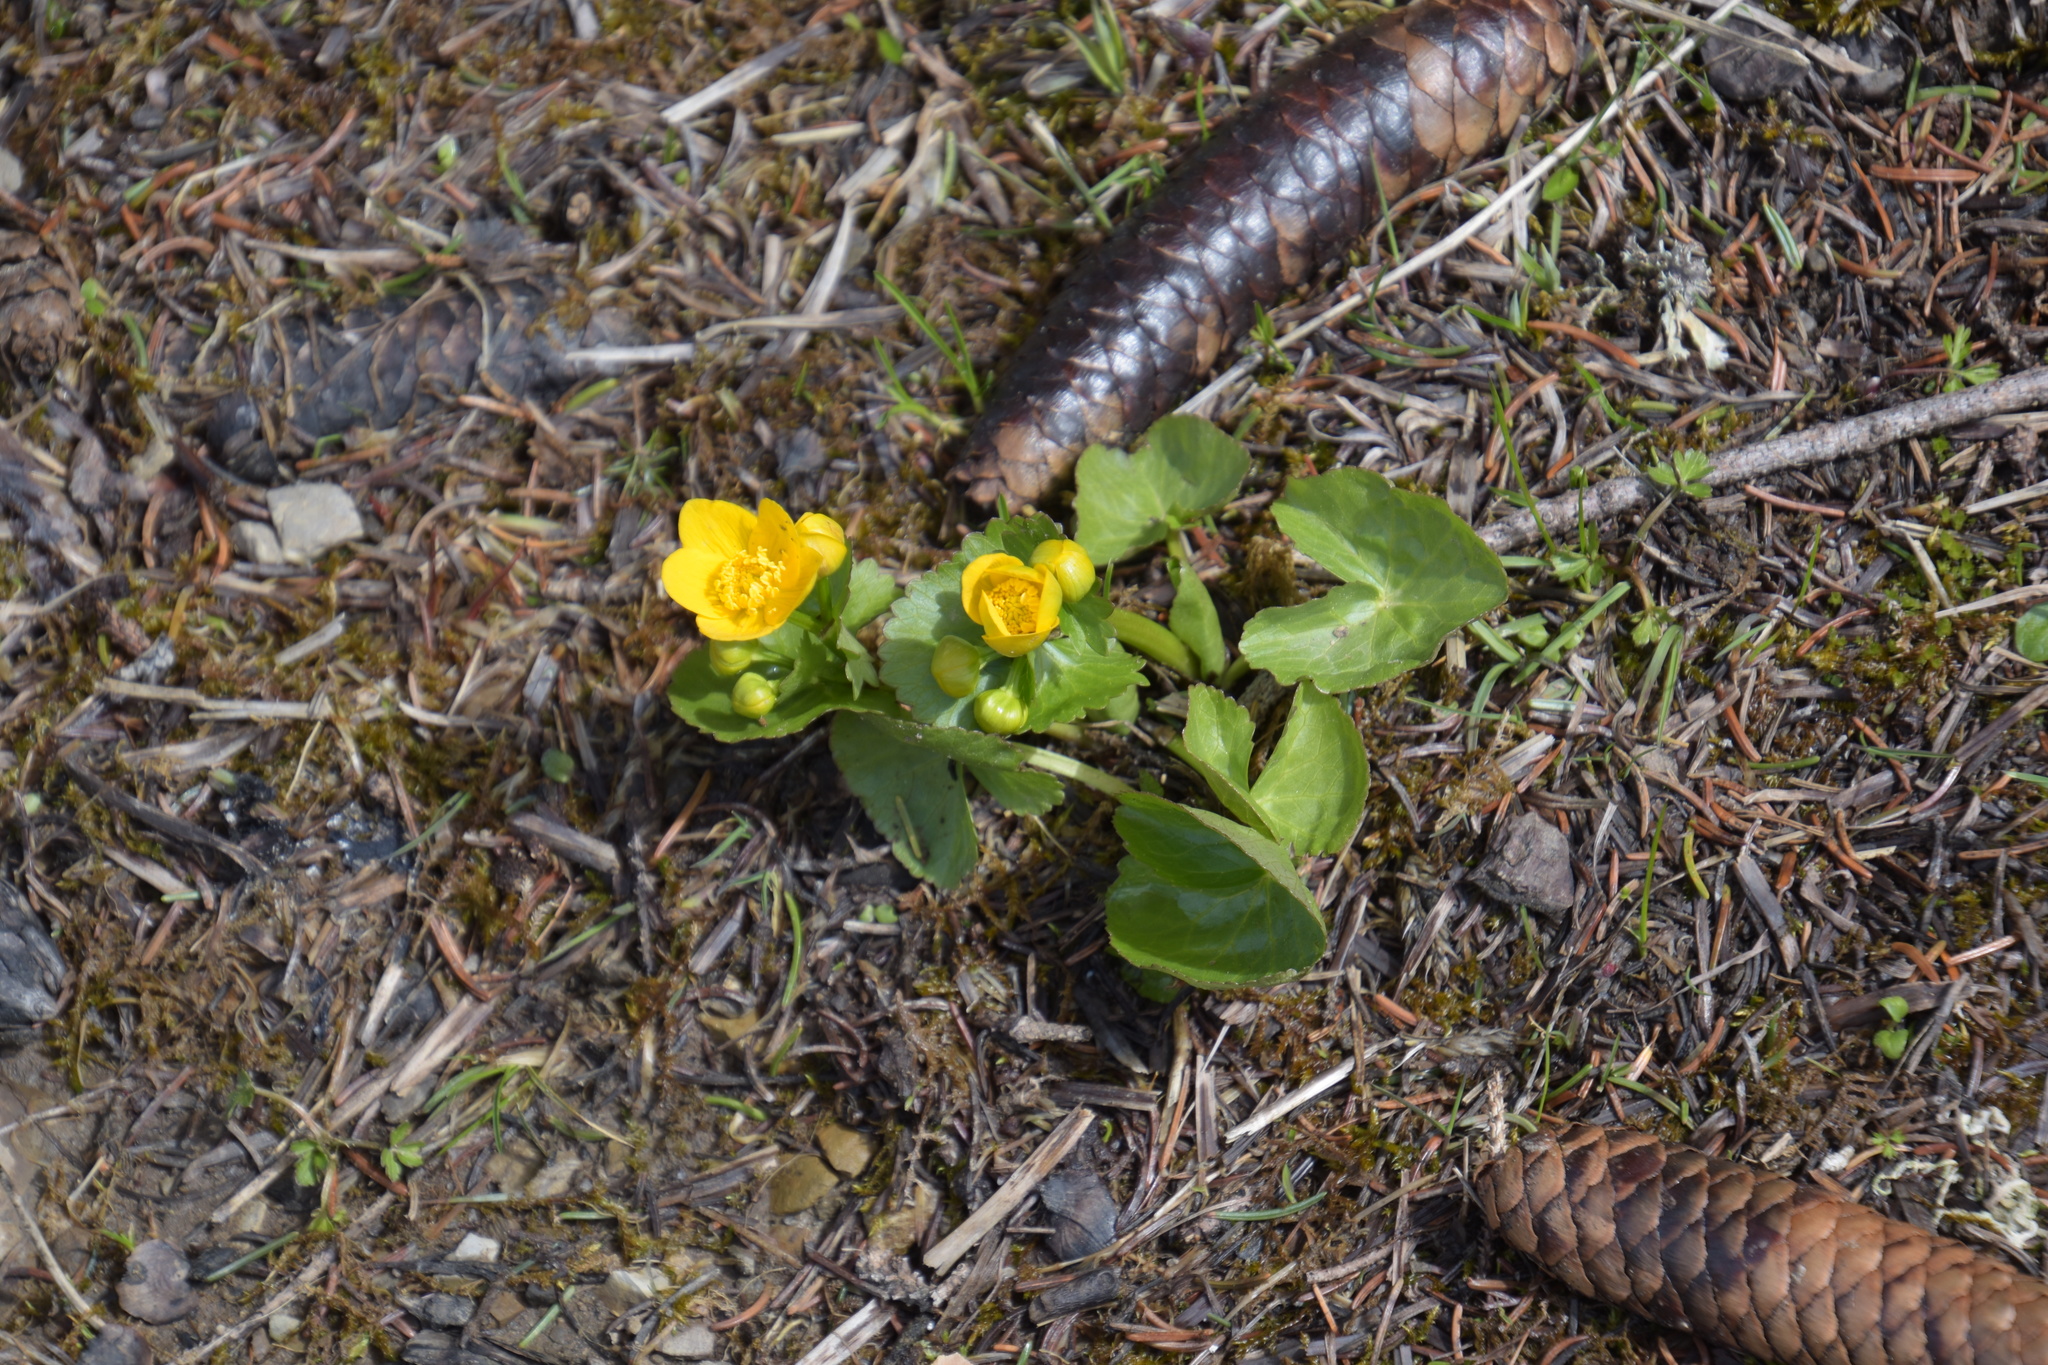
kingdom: Plantae
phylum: Tracheophyta
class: Magnoliopsida
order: Ranunculales
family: Ranunculaceae
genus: Caltha
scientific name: Caltha palustris
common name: Marsh marigold
